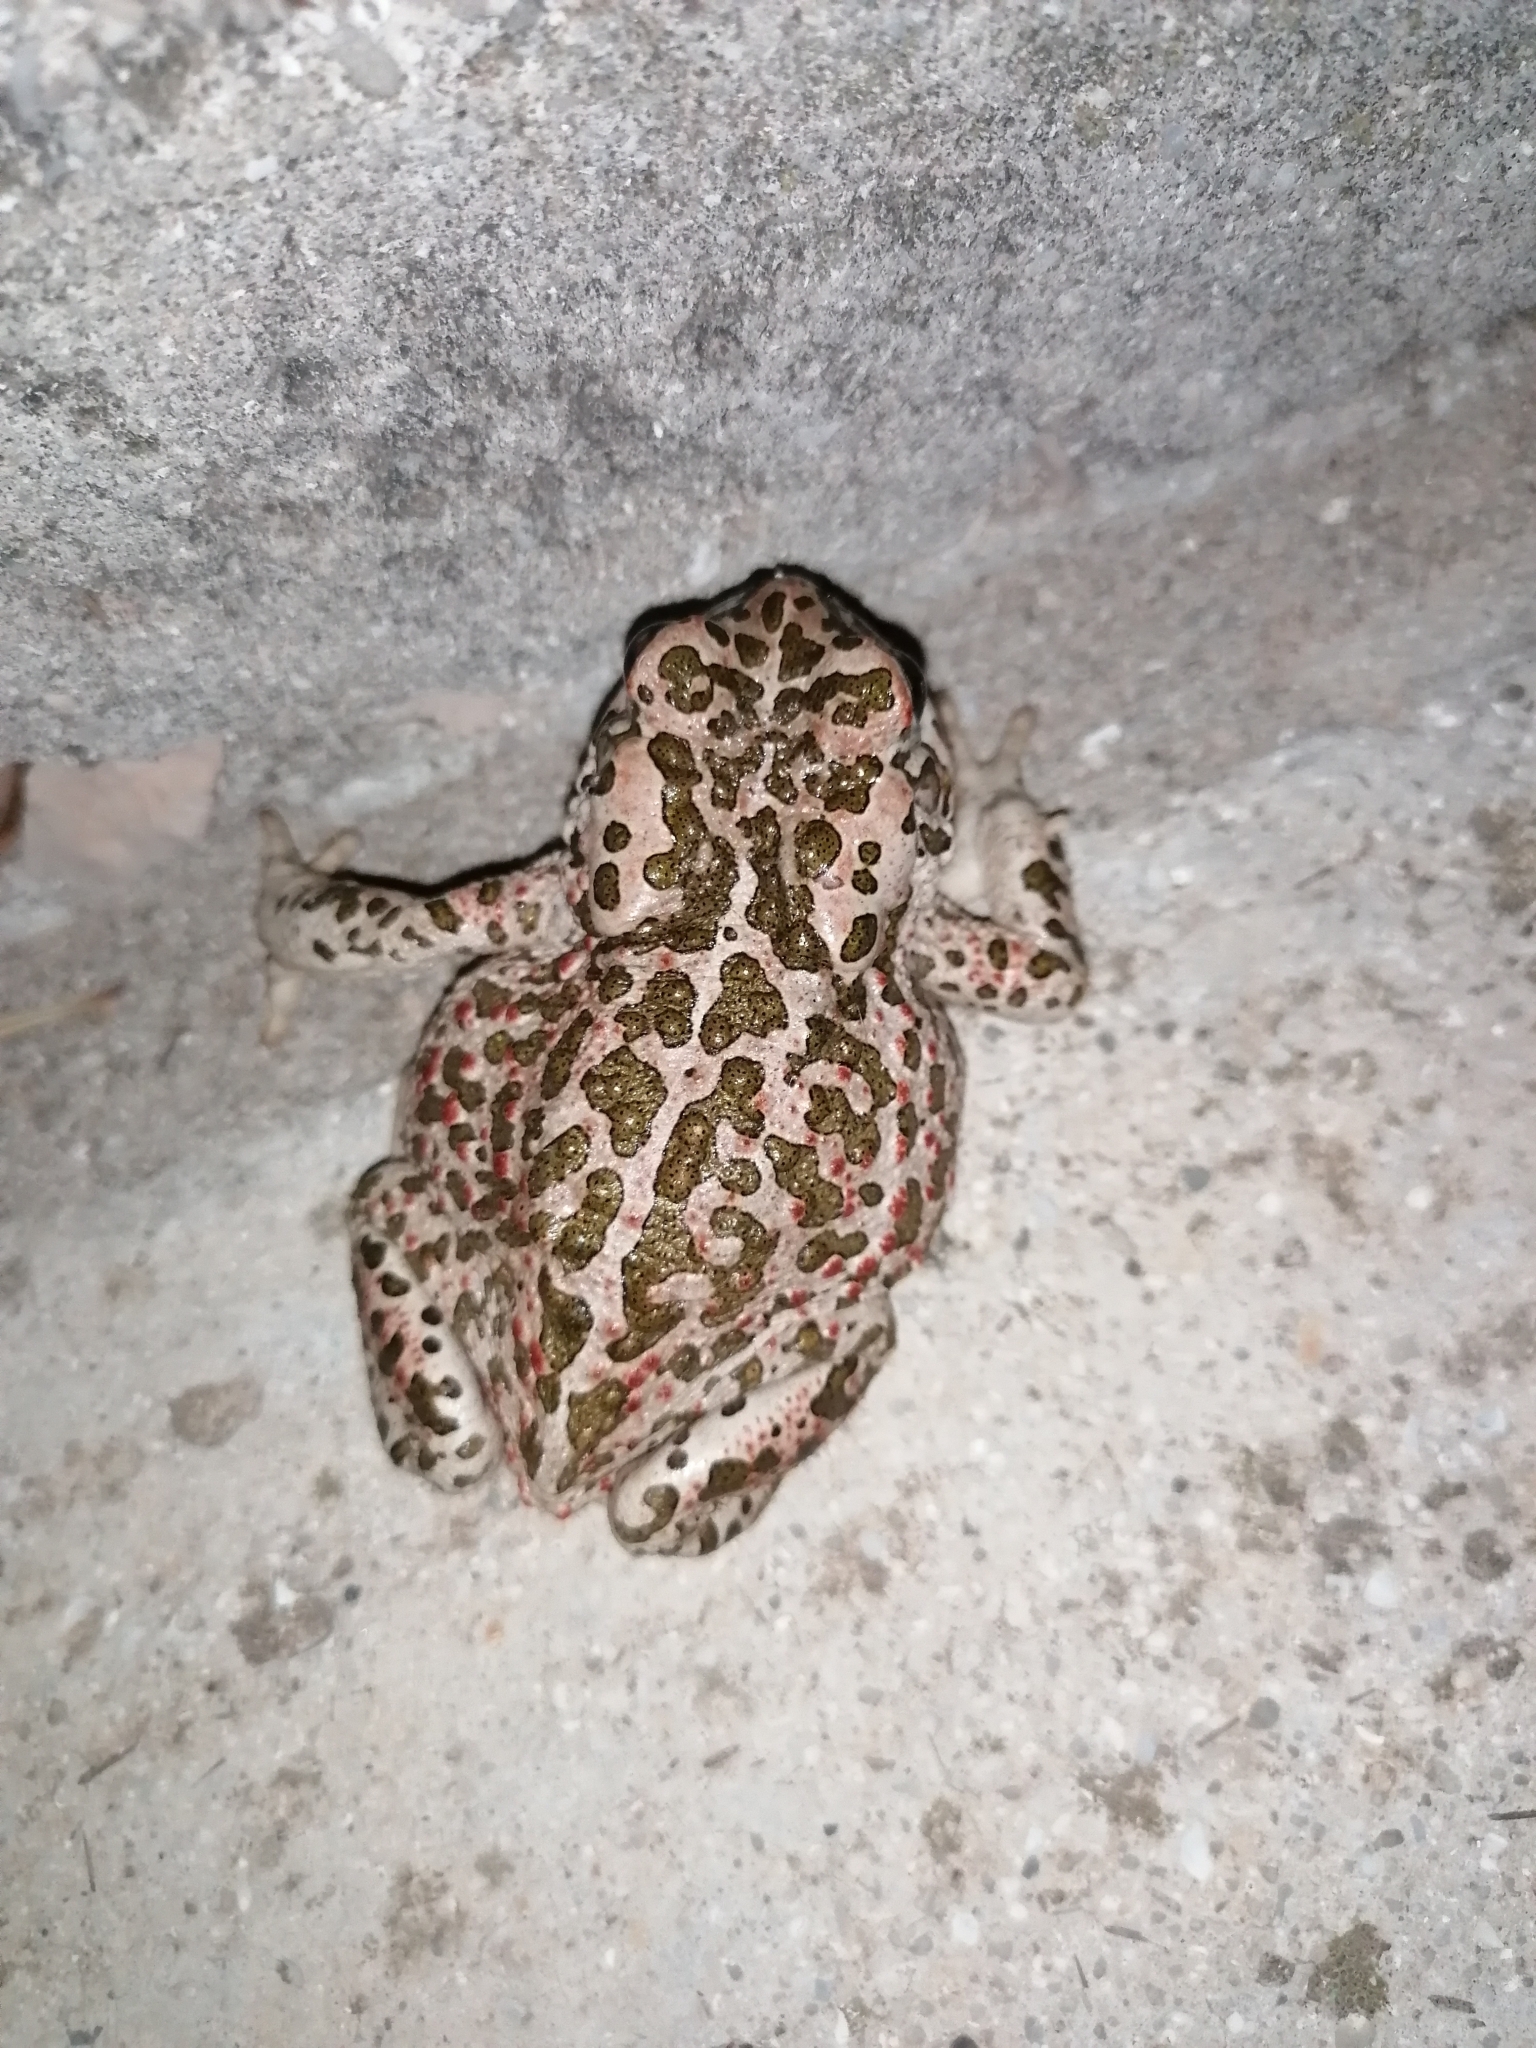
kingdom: Animalia
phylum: Chordata
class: Amphibia
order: Anura
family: Bufonidae
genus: Bufotes
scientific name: Bufotes viridis
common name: European green toad
